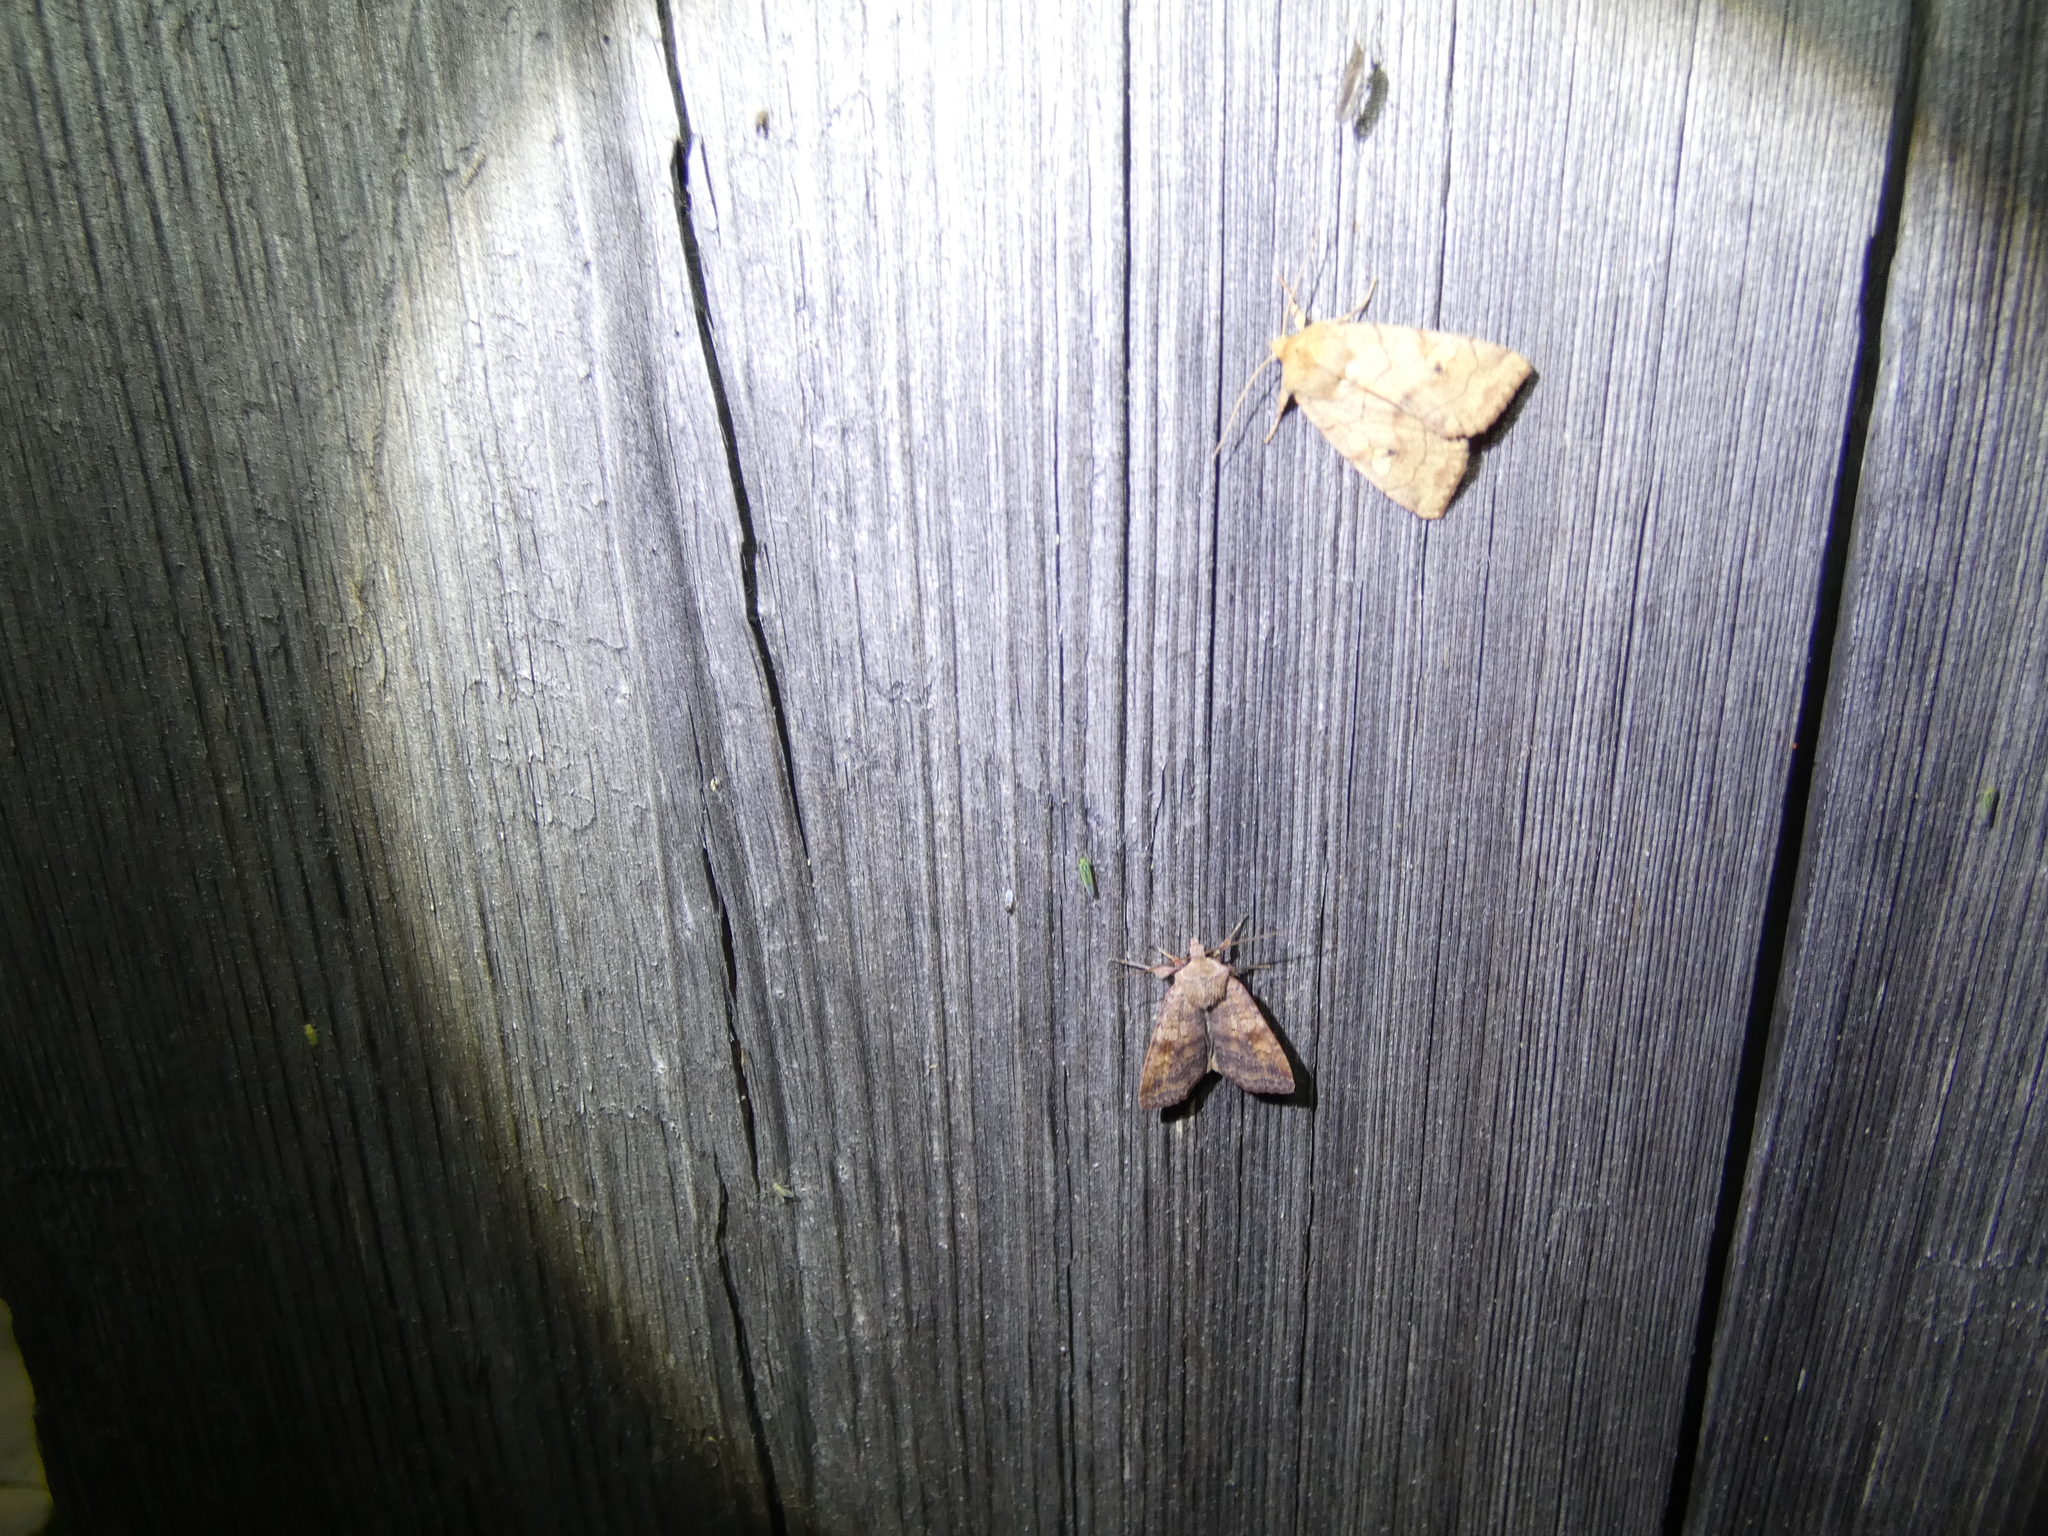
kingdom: Animalia
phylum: Arthropoda
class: Insecta
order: Lepidoptera
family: Noctuidae
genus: Enargia
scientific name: Enargia paleacea
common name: Angle-striped sallow
